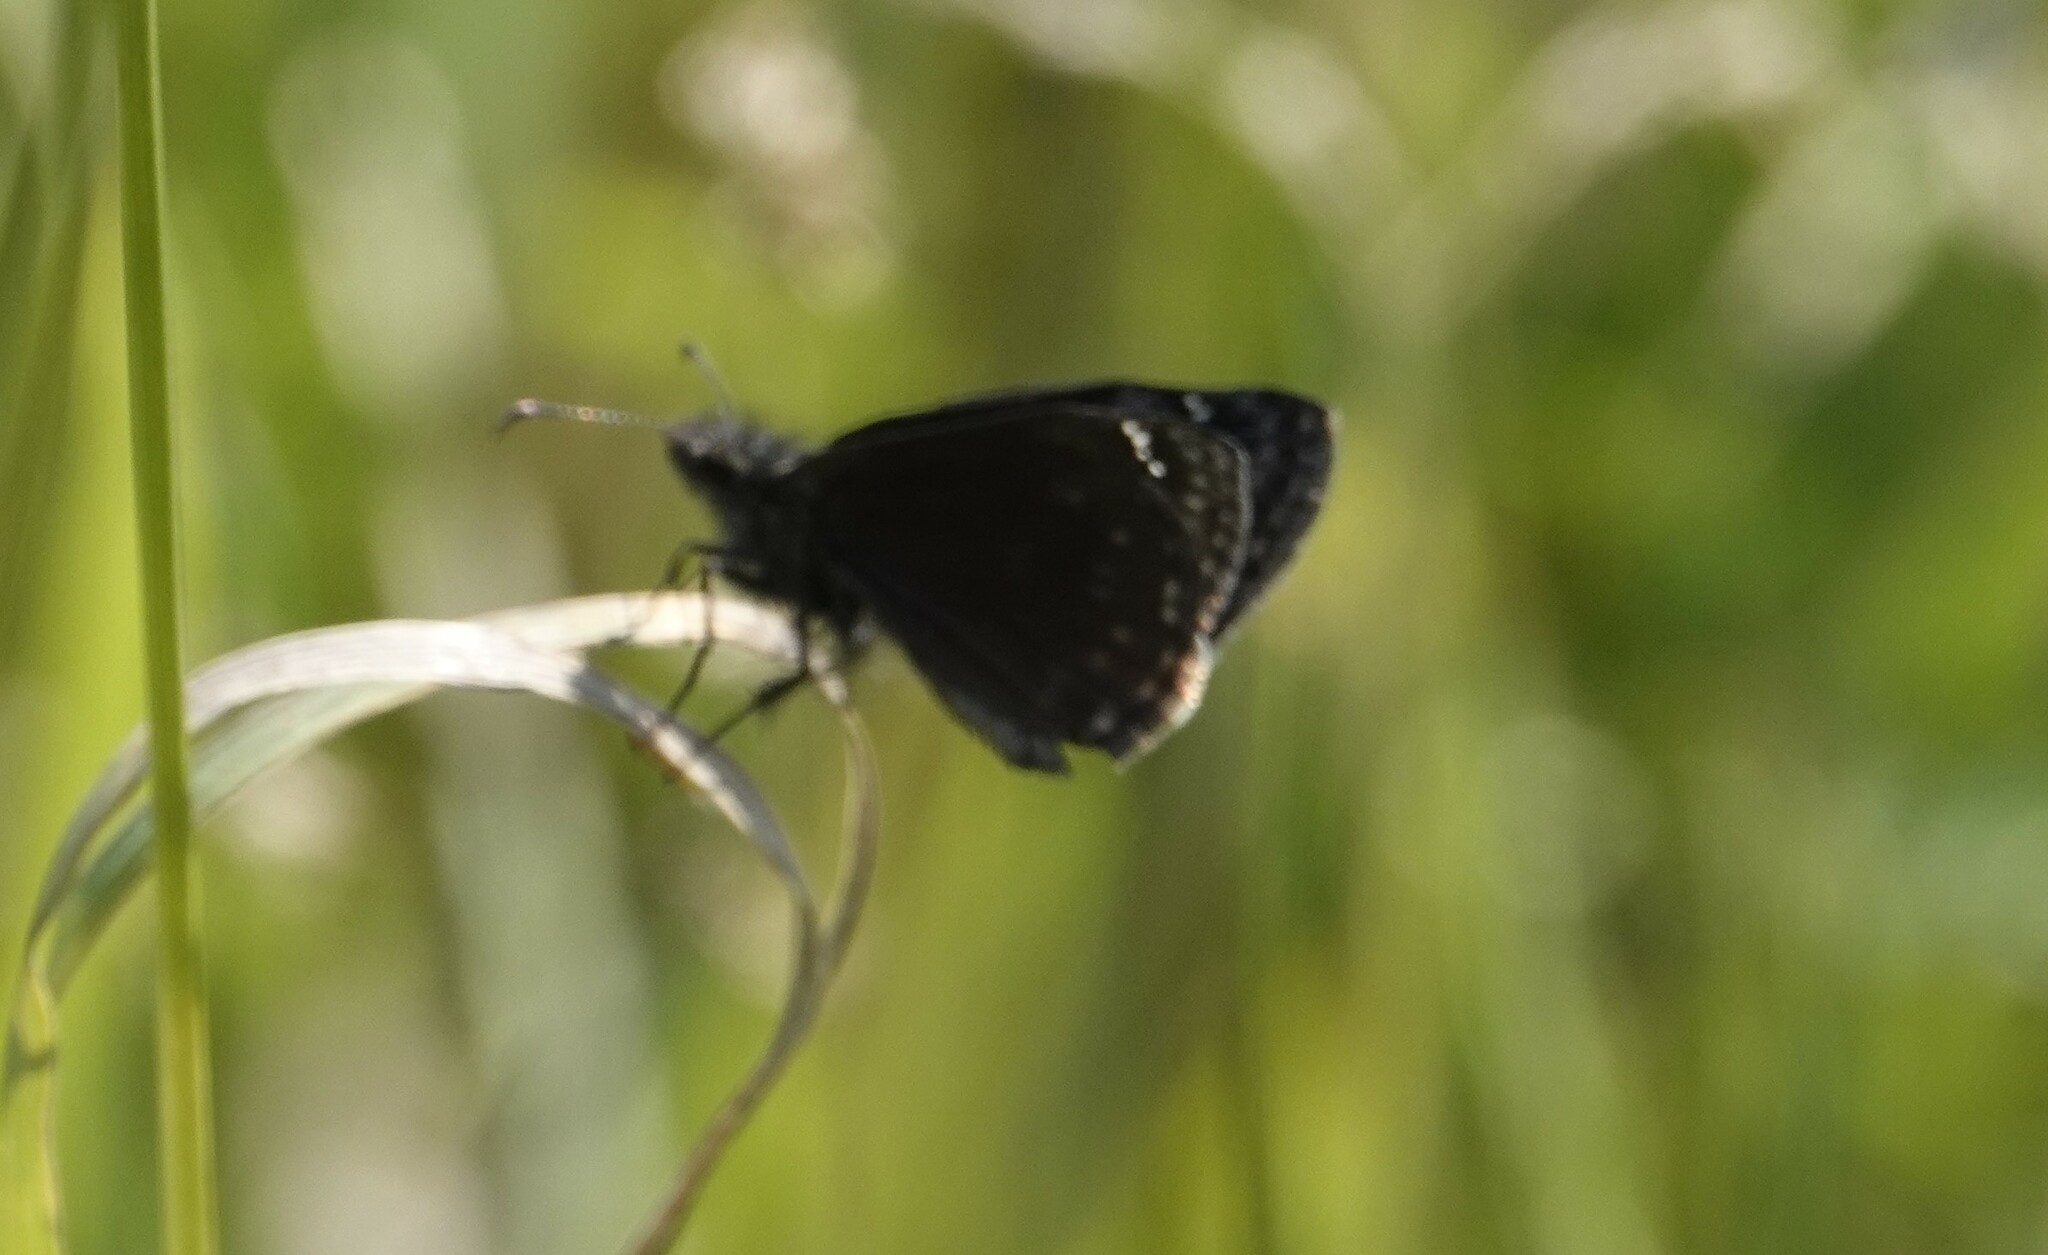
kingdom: Animalia
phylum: Arthropoda
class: Insecta
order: Lepidoptera
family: Hesperiidae
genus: Erynnis
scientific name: Erynnis baptisiae
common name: Wild indigo duskywing
